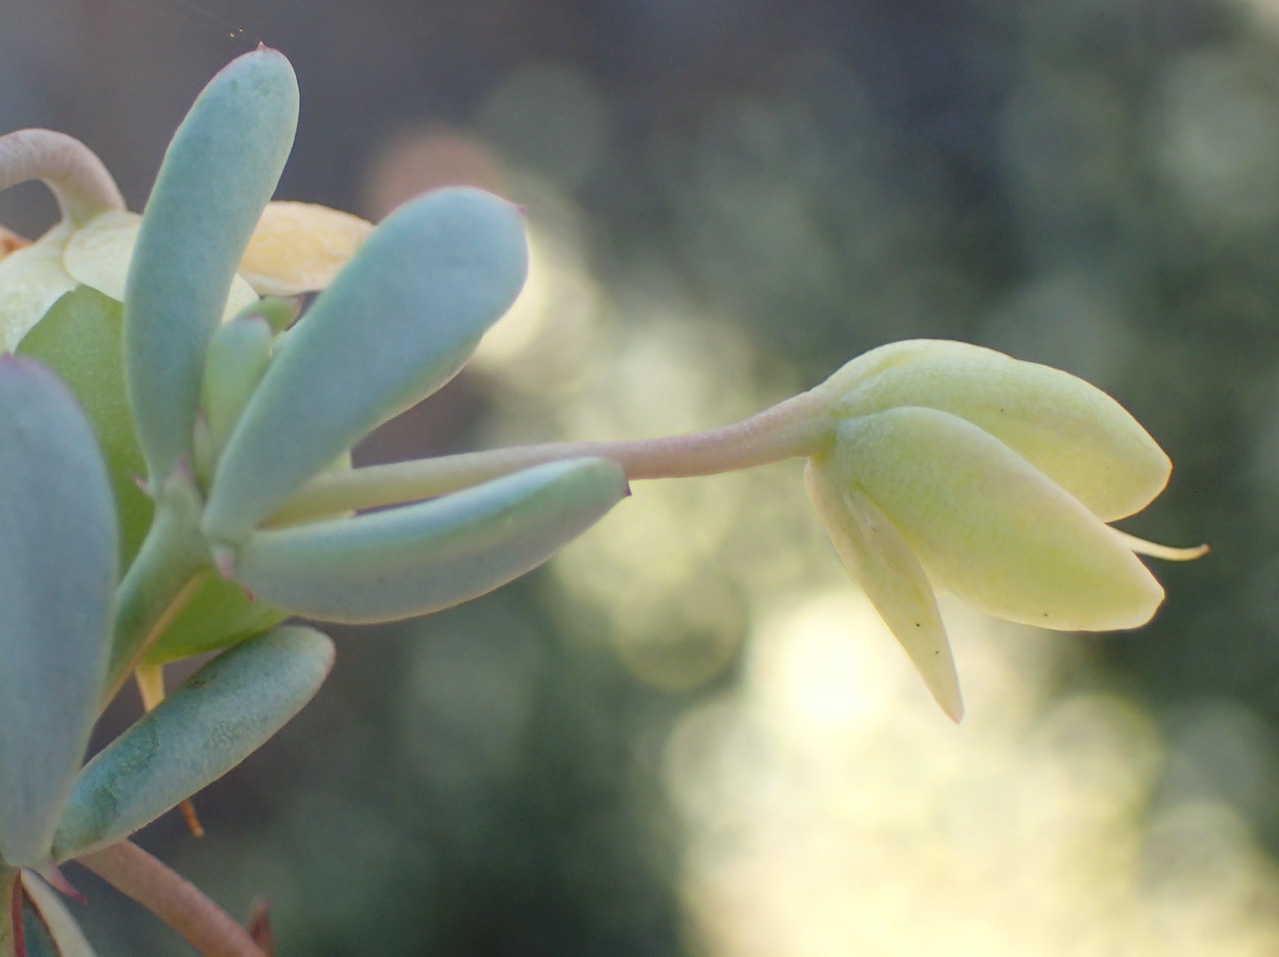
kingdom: Plantae
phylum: Tracheophyta
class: Magnoliopsida
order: Zygophyllales
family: Zygophyllaceae
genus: Roepera
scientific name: Roepera fulva
